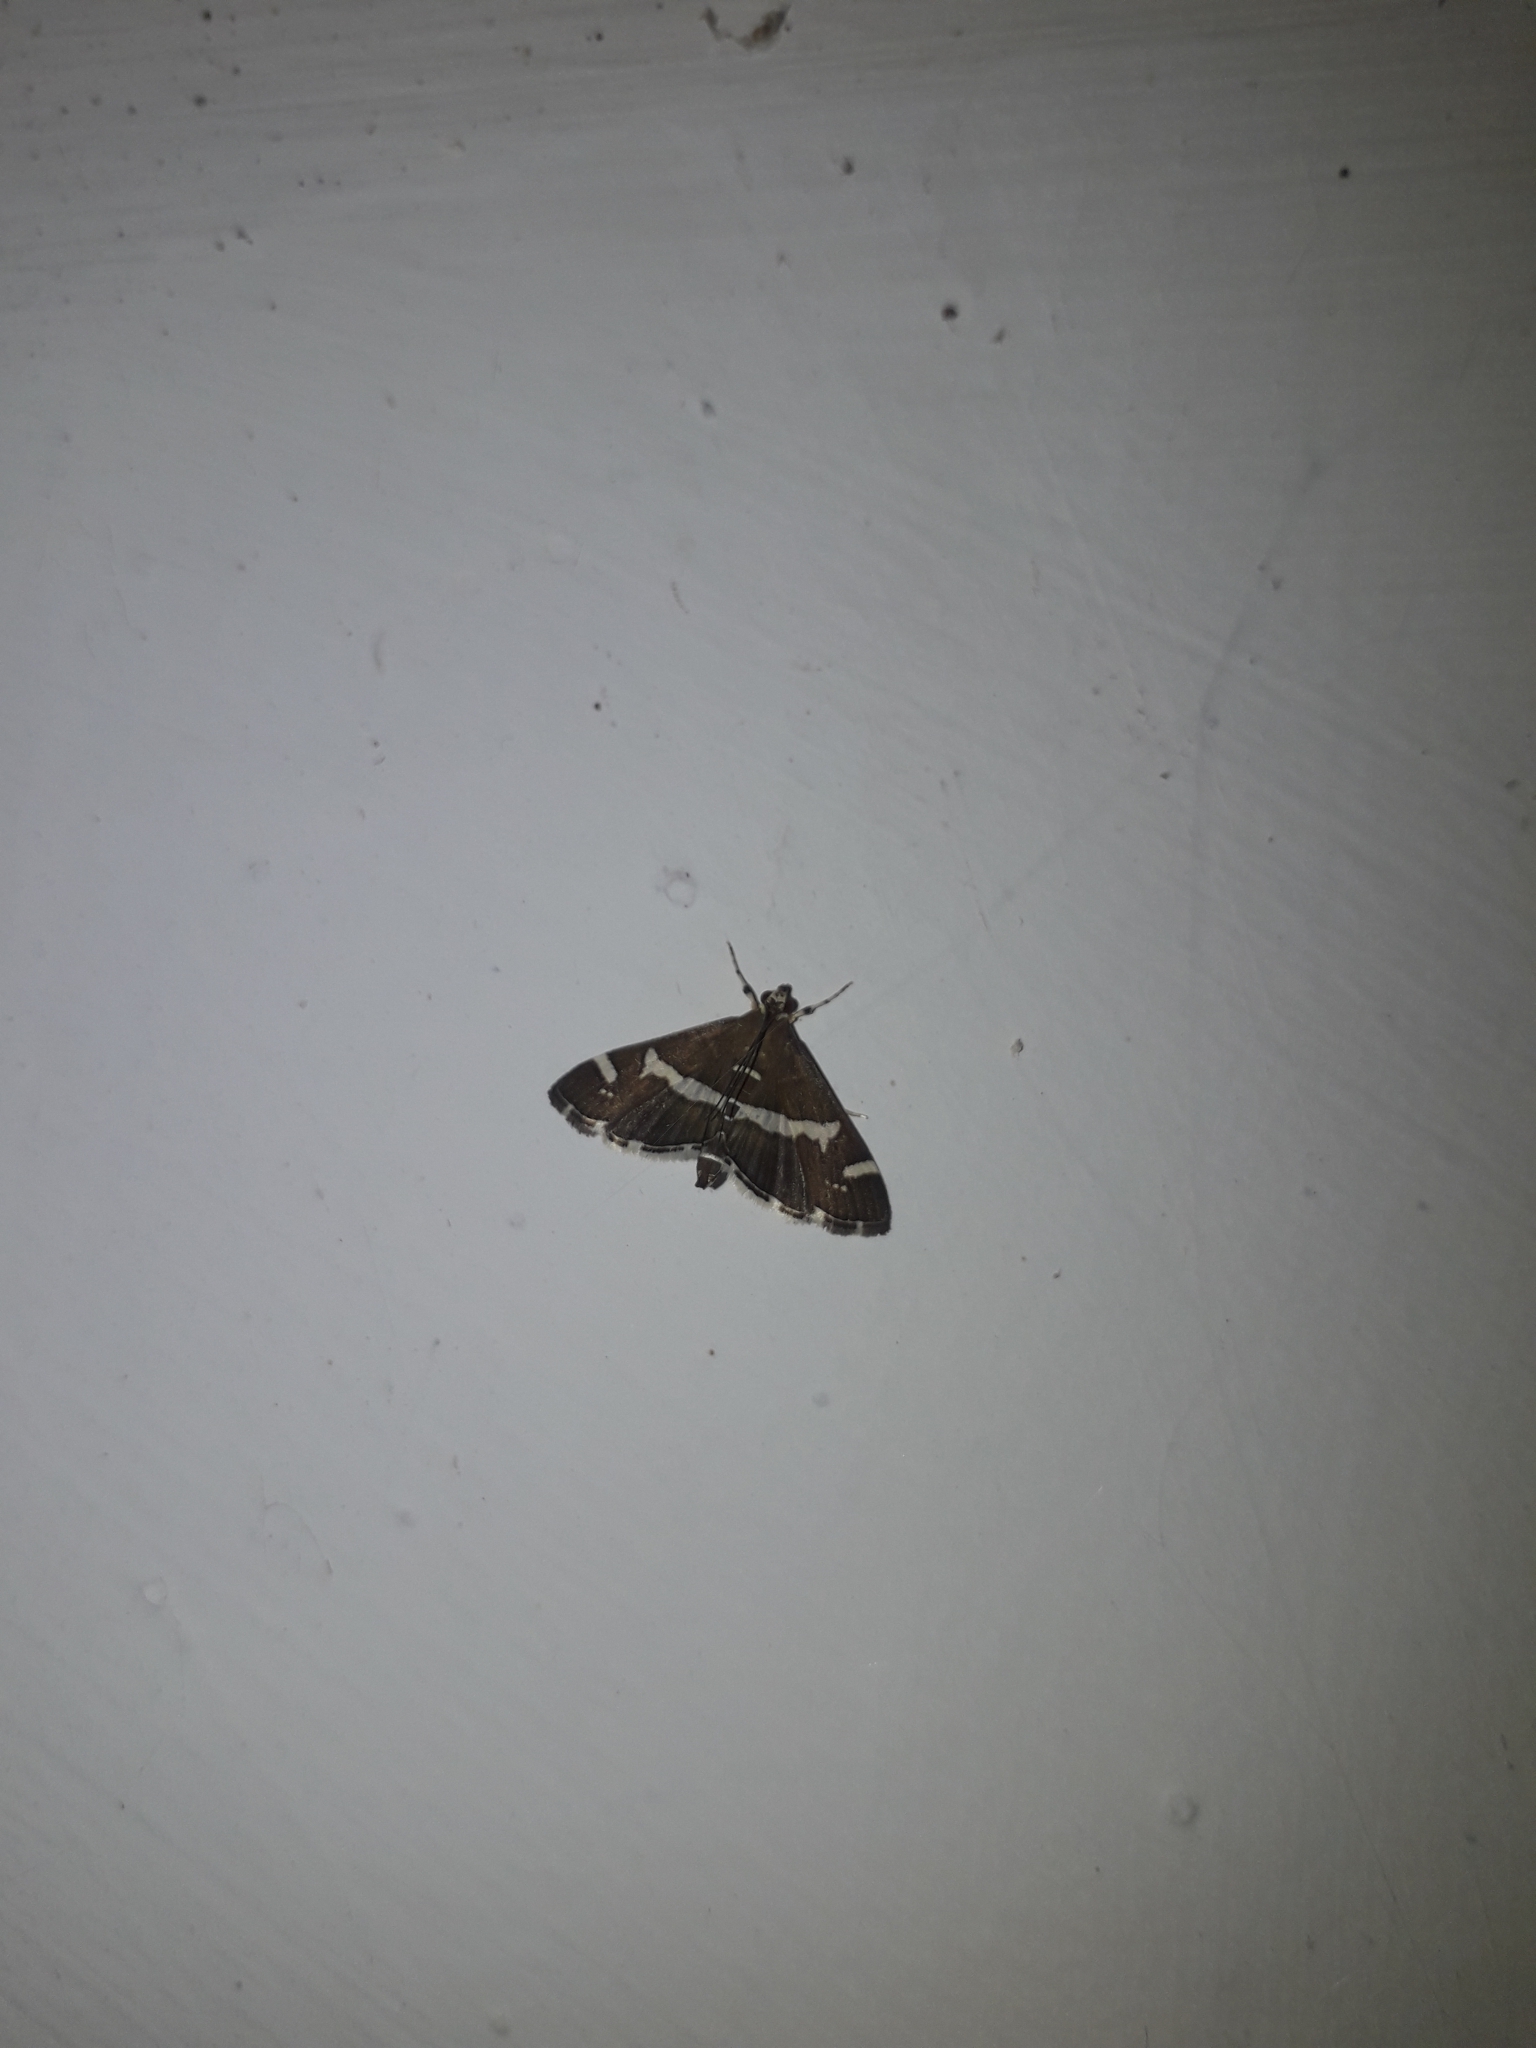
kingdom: Animalia
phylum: Arthropoda
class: Insecta
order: Lepidoptera
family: Crambidae
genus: Spoladea
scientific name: Spoladea recurvalis
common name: Beet webworm moth
